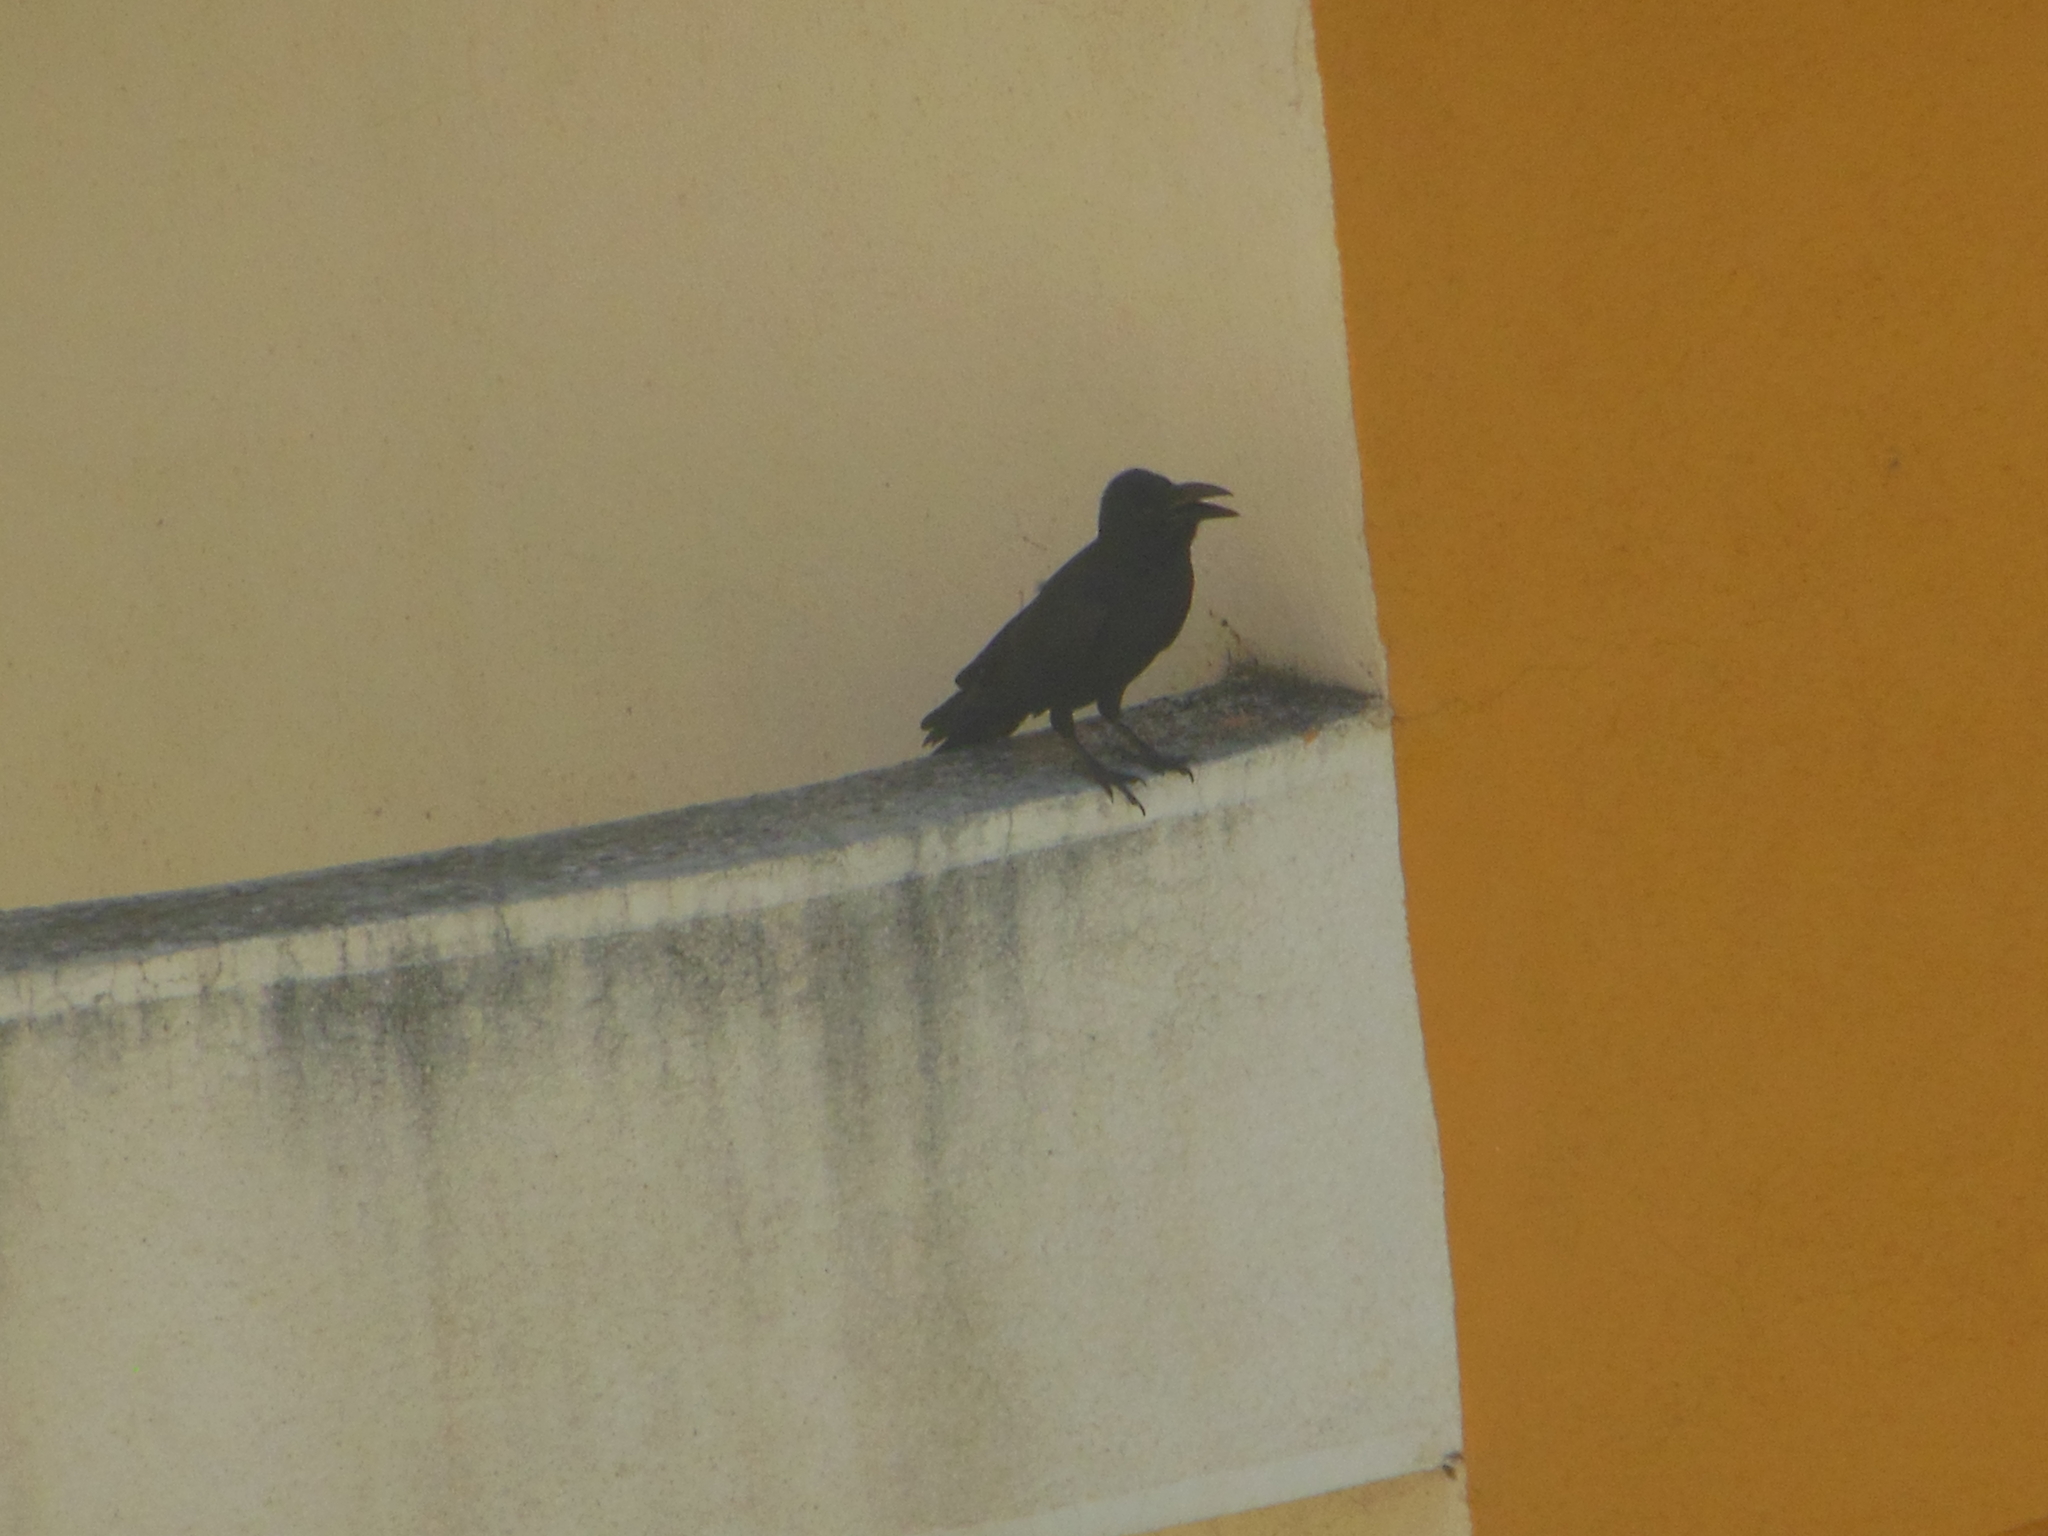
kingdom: Animalia
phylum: Chordata
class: Aves
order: Passeriformes
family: Corvidae
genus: Corvus
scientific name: Corvus macrorhynchos
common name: Large-billed crow
